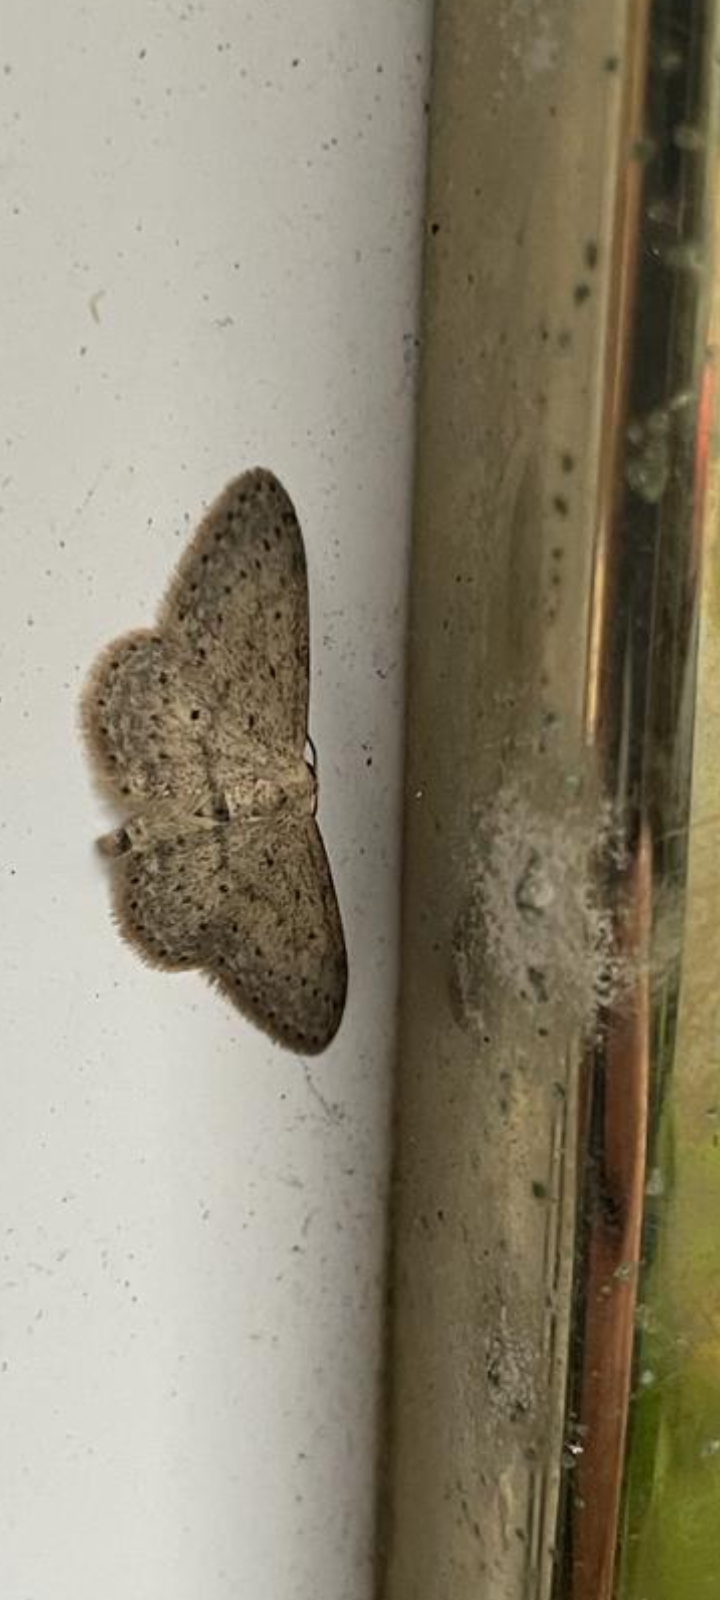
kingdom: Animalia
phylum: Arthropoda
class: Insecta
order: Lepidoptera
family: Geometridae
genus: Idaea
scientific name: Idaea seriata
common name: Small dusty wave
